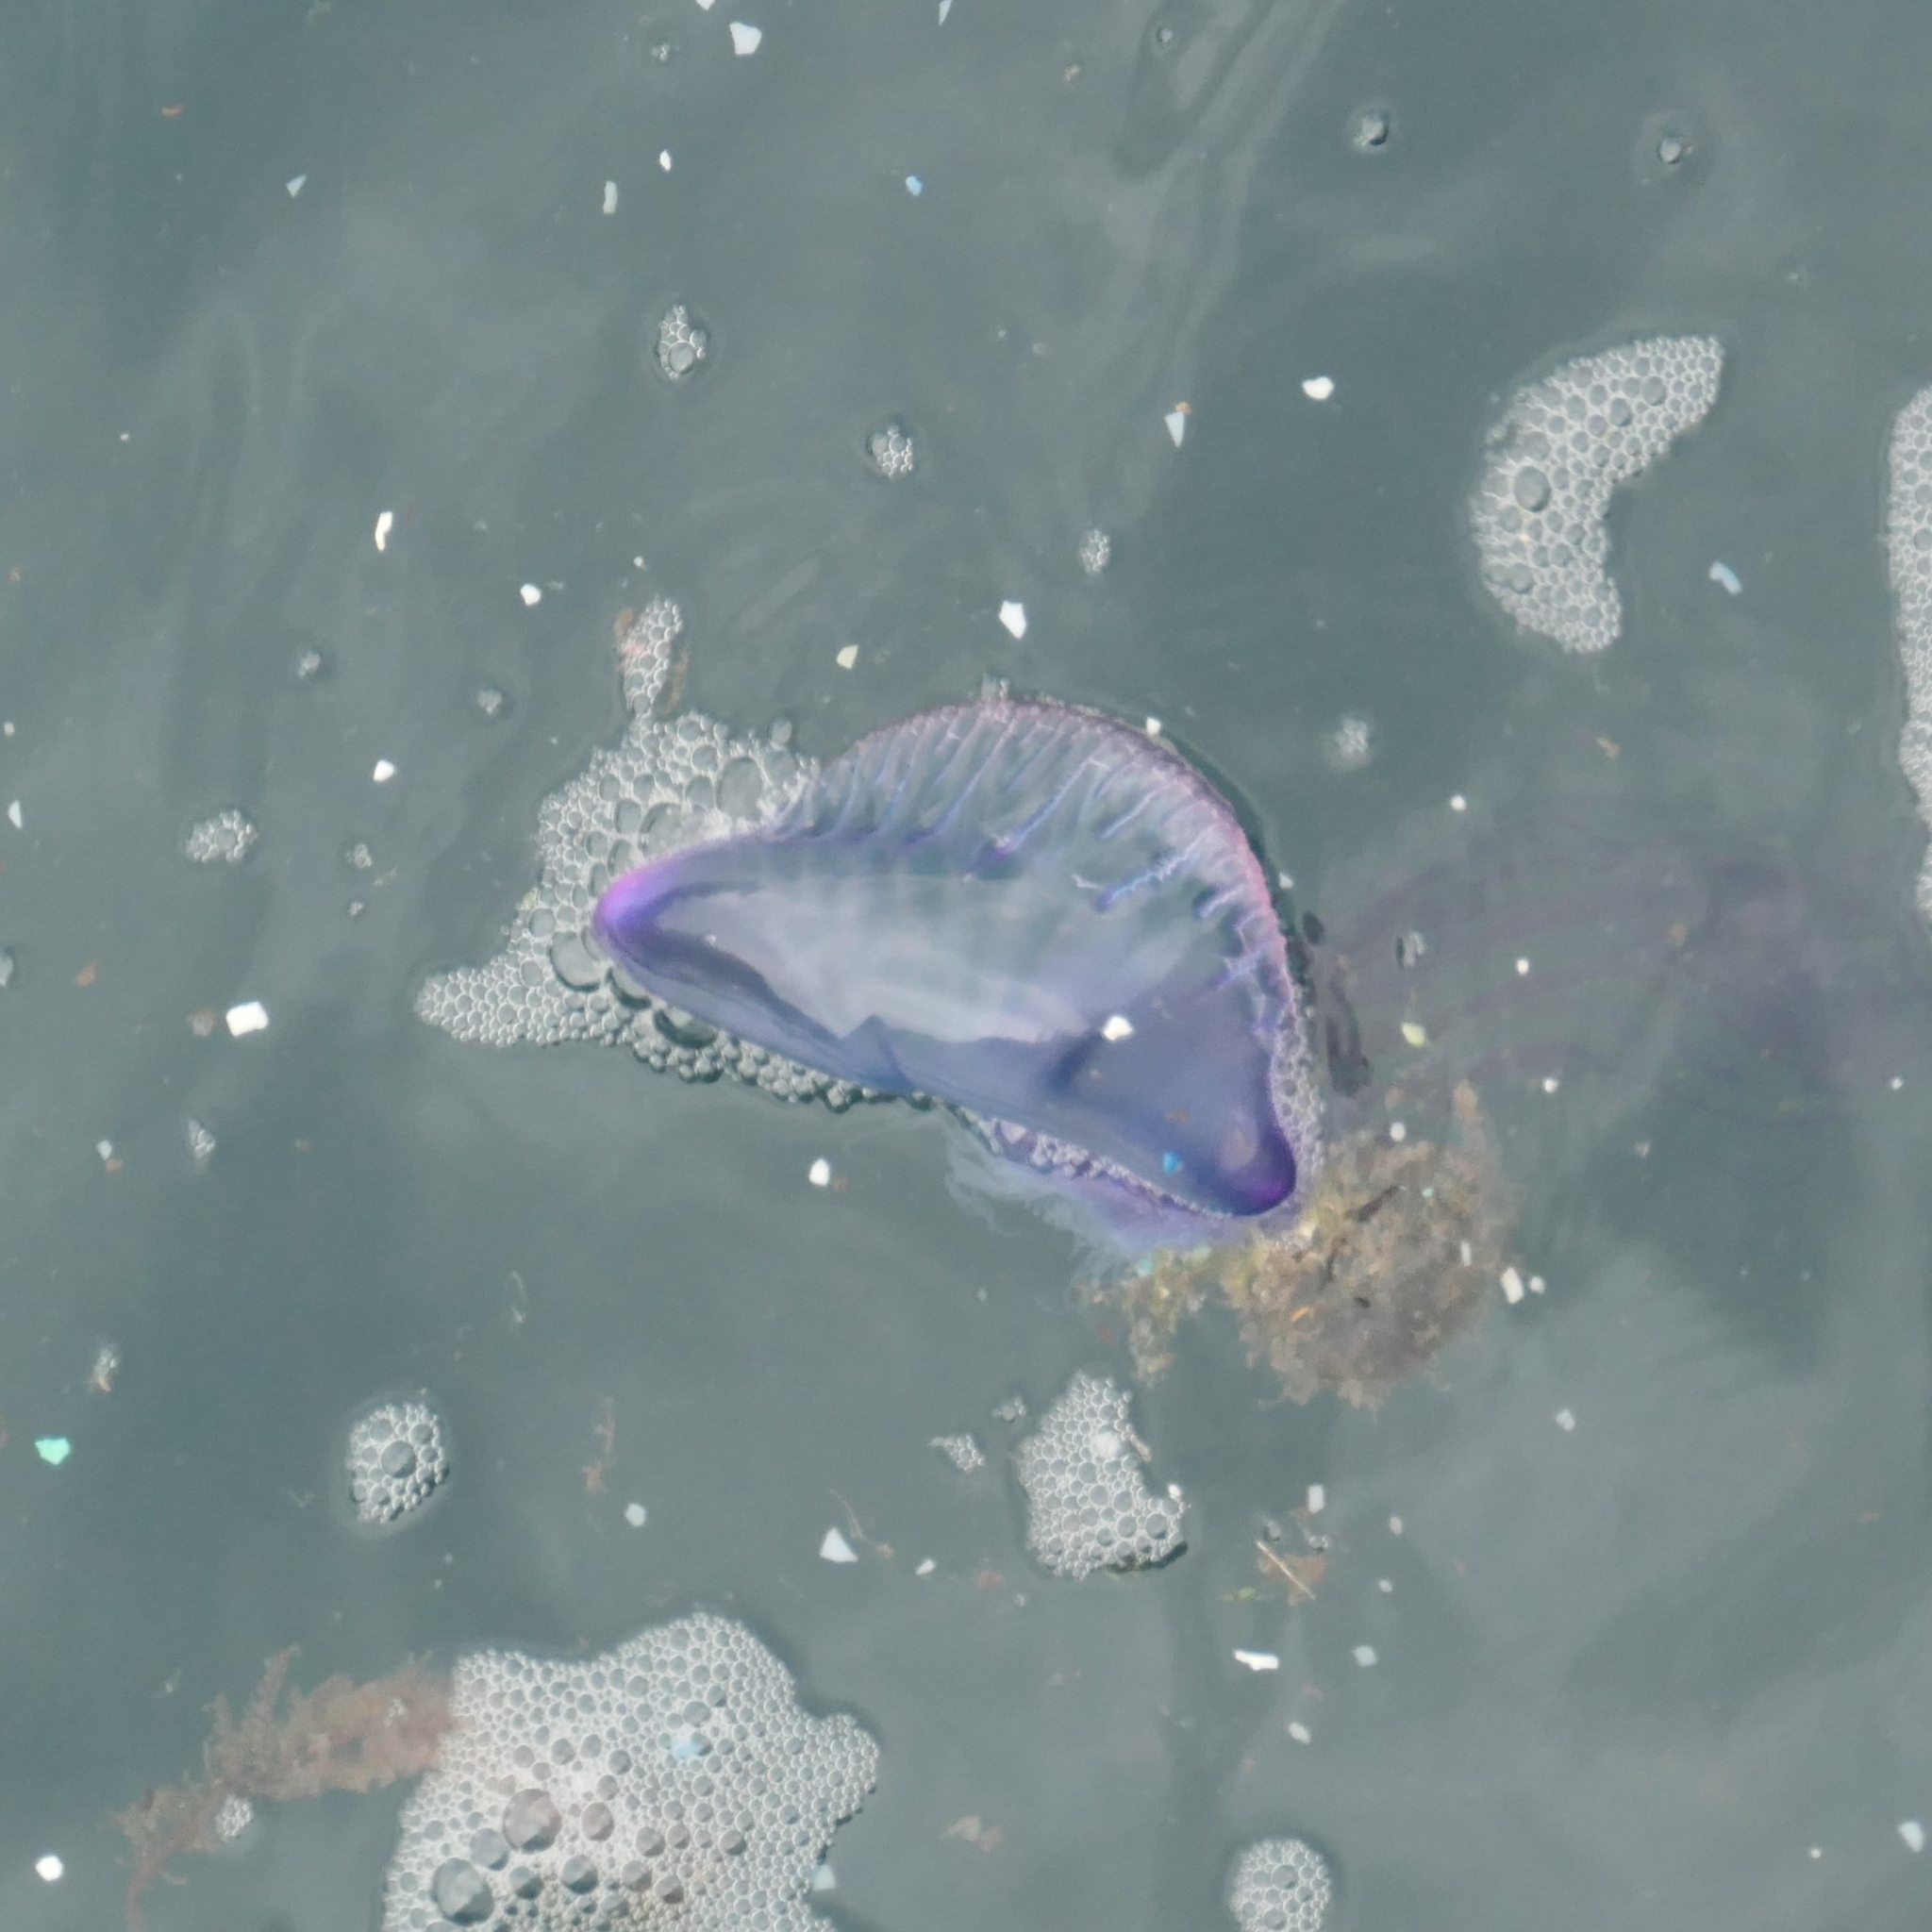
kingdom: Animalia
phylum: Cnidaria
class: Hydrozoa
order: Siphonophorae
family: Physaliidae
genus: Physalia
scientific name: Physalia physalis
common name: Portuguese man-of-war
